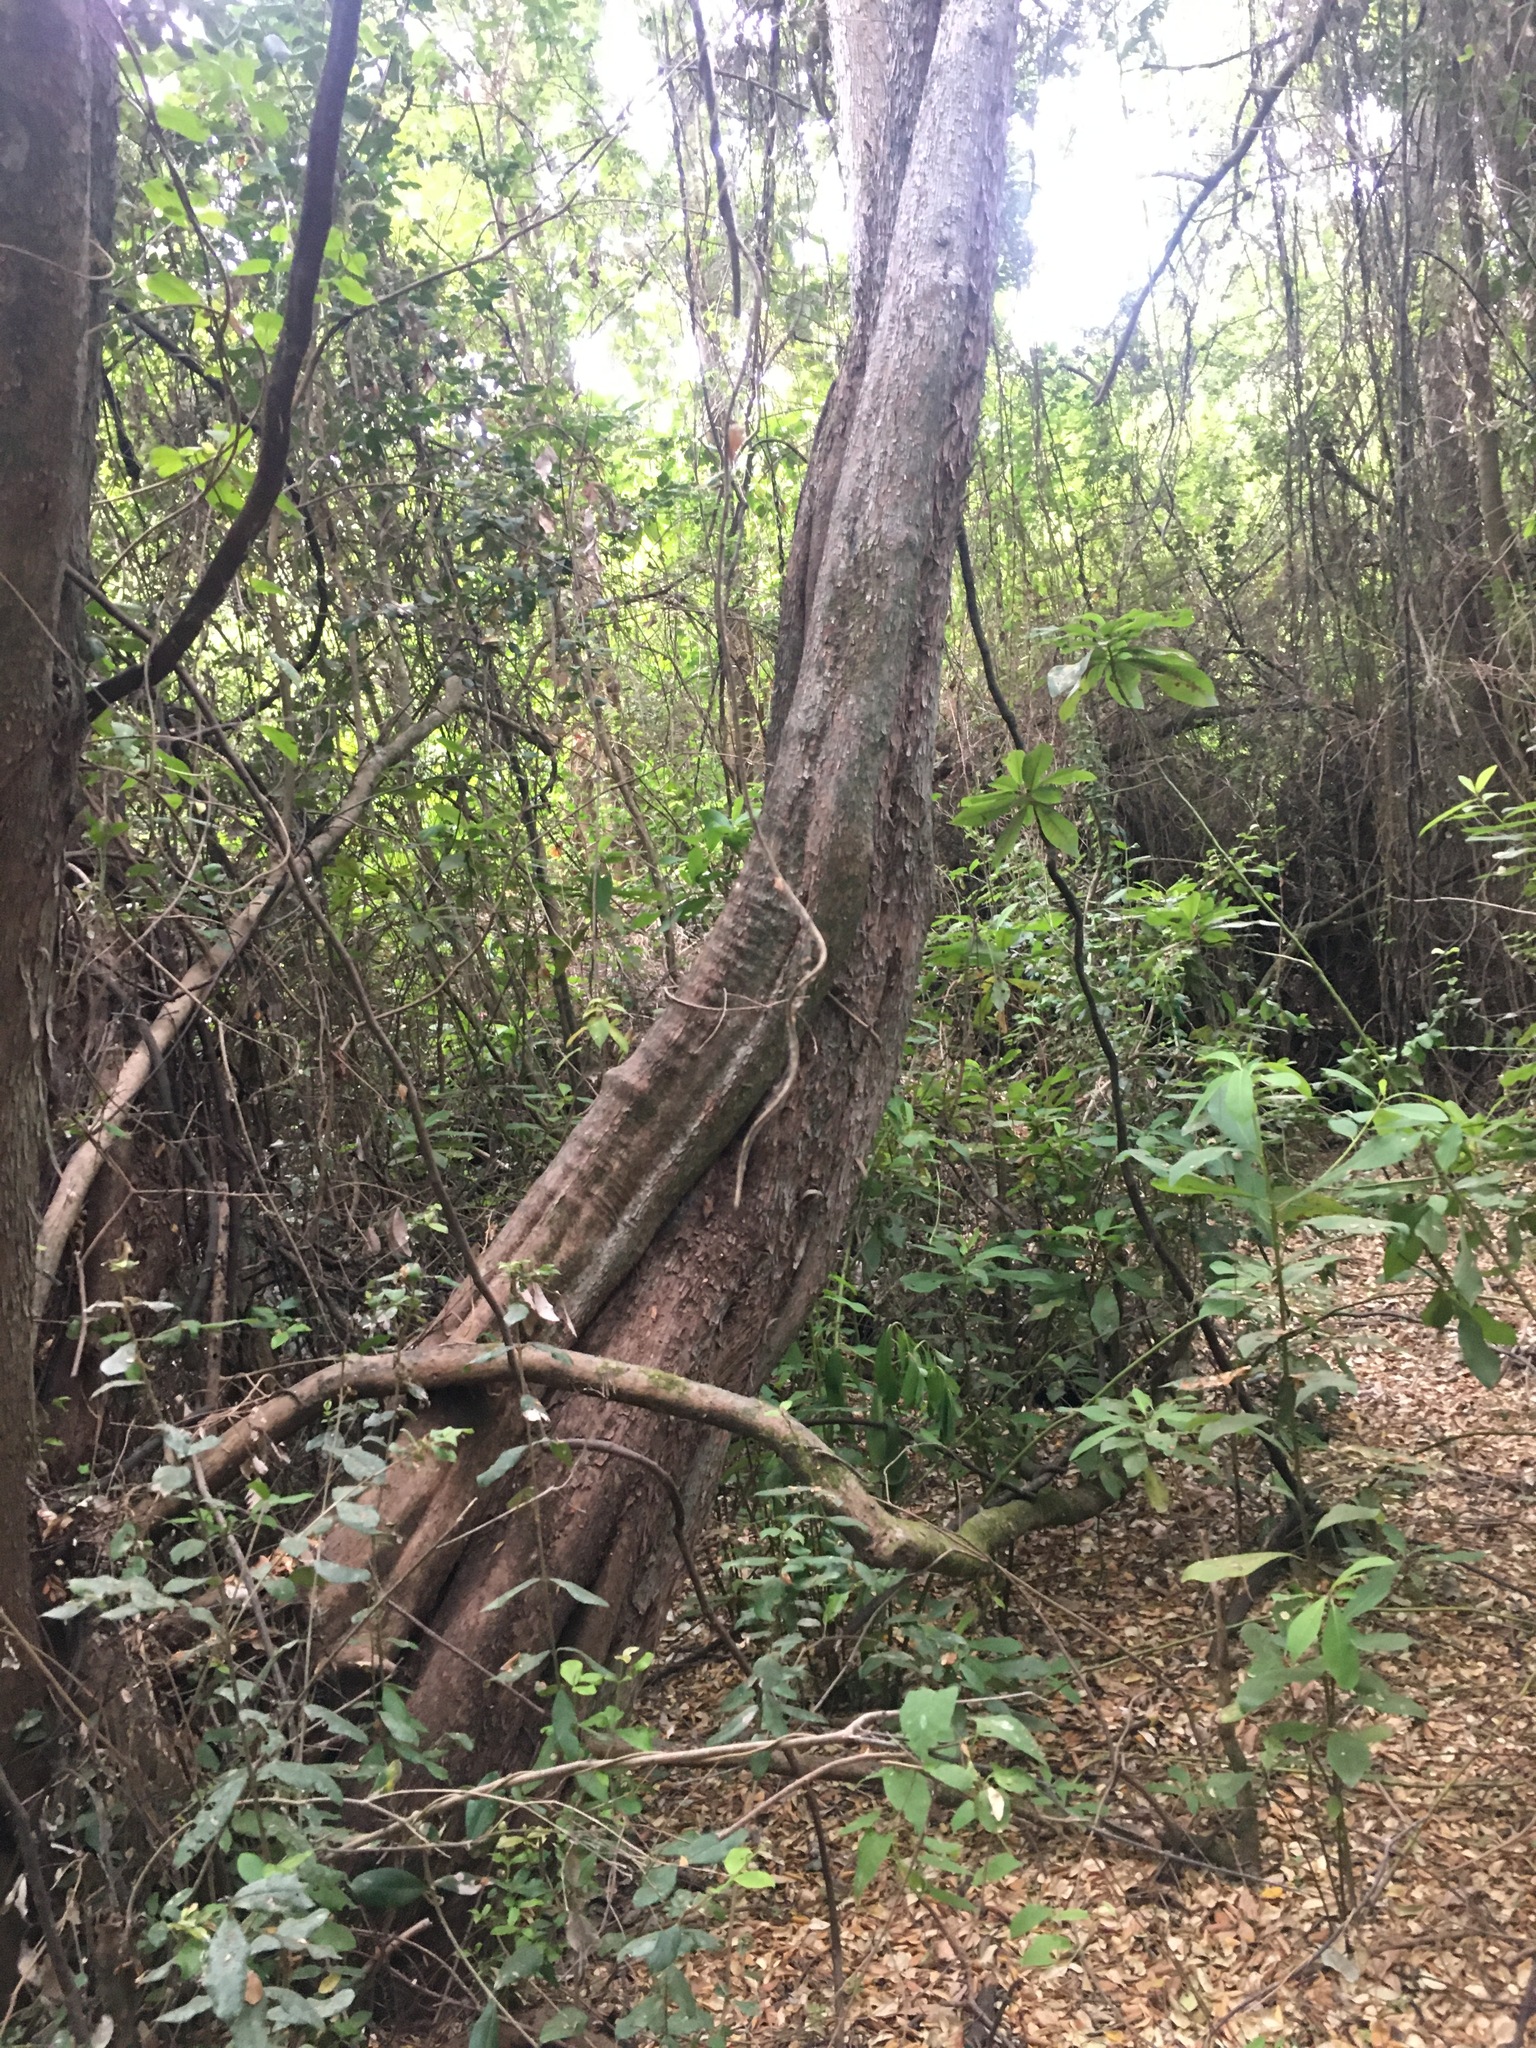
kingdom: Plantae
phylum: Tracheophyta
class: Magnoliopsida
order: Myrtales
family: Myrtaceae
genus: Myrceugenia
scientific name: Myrceugenia exsucca
